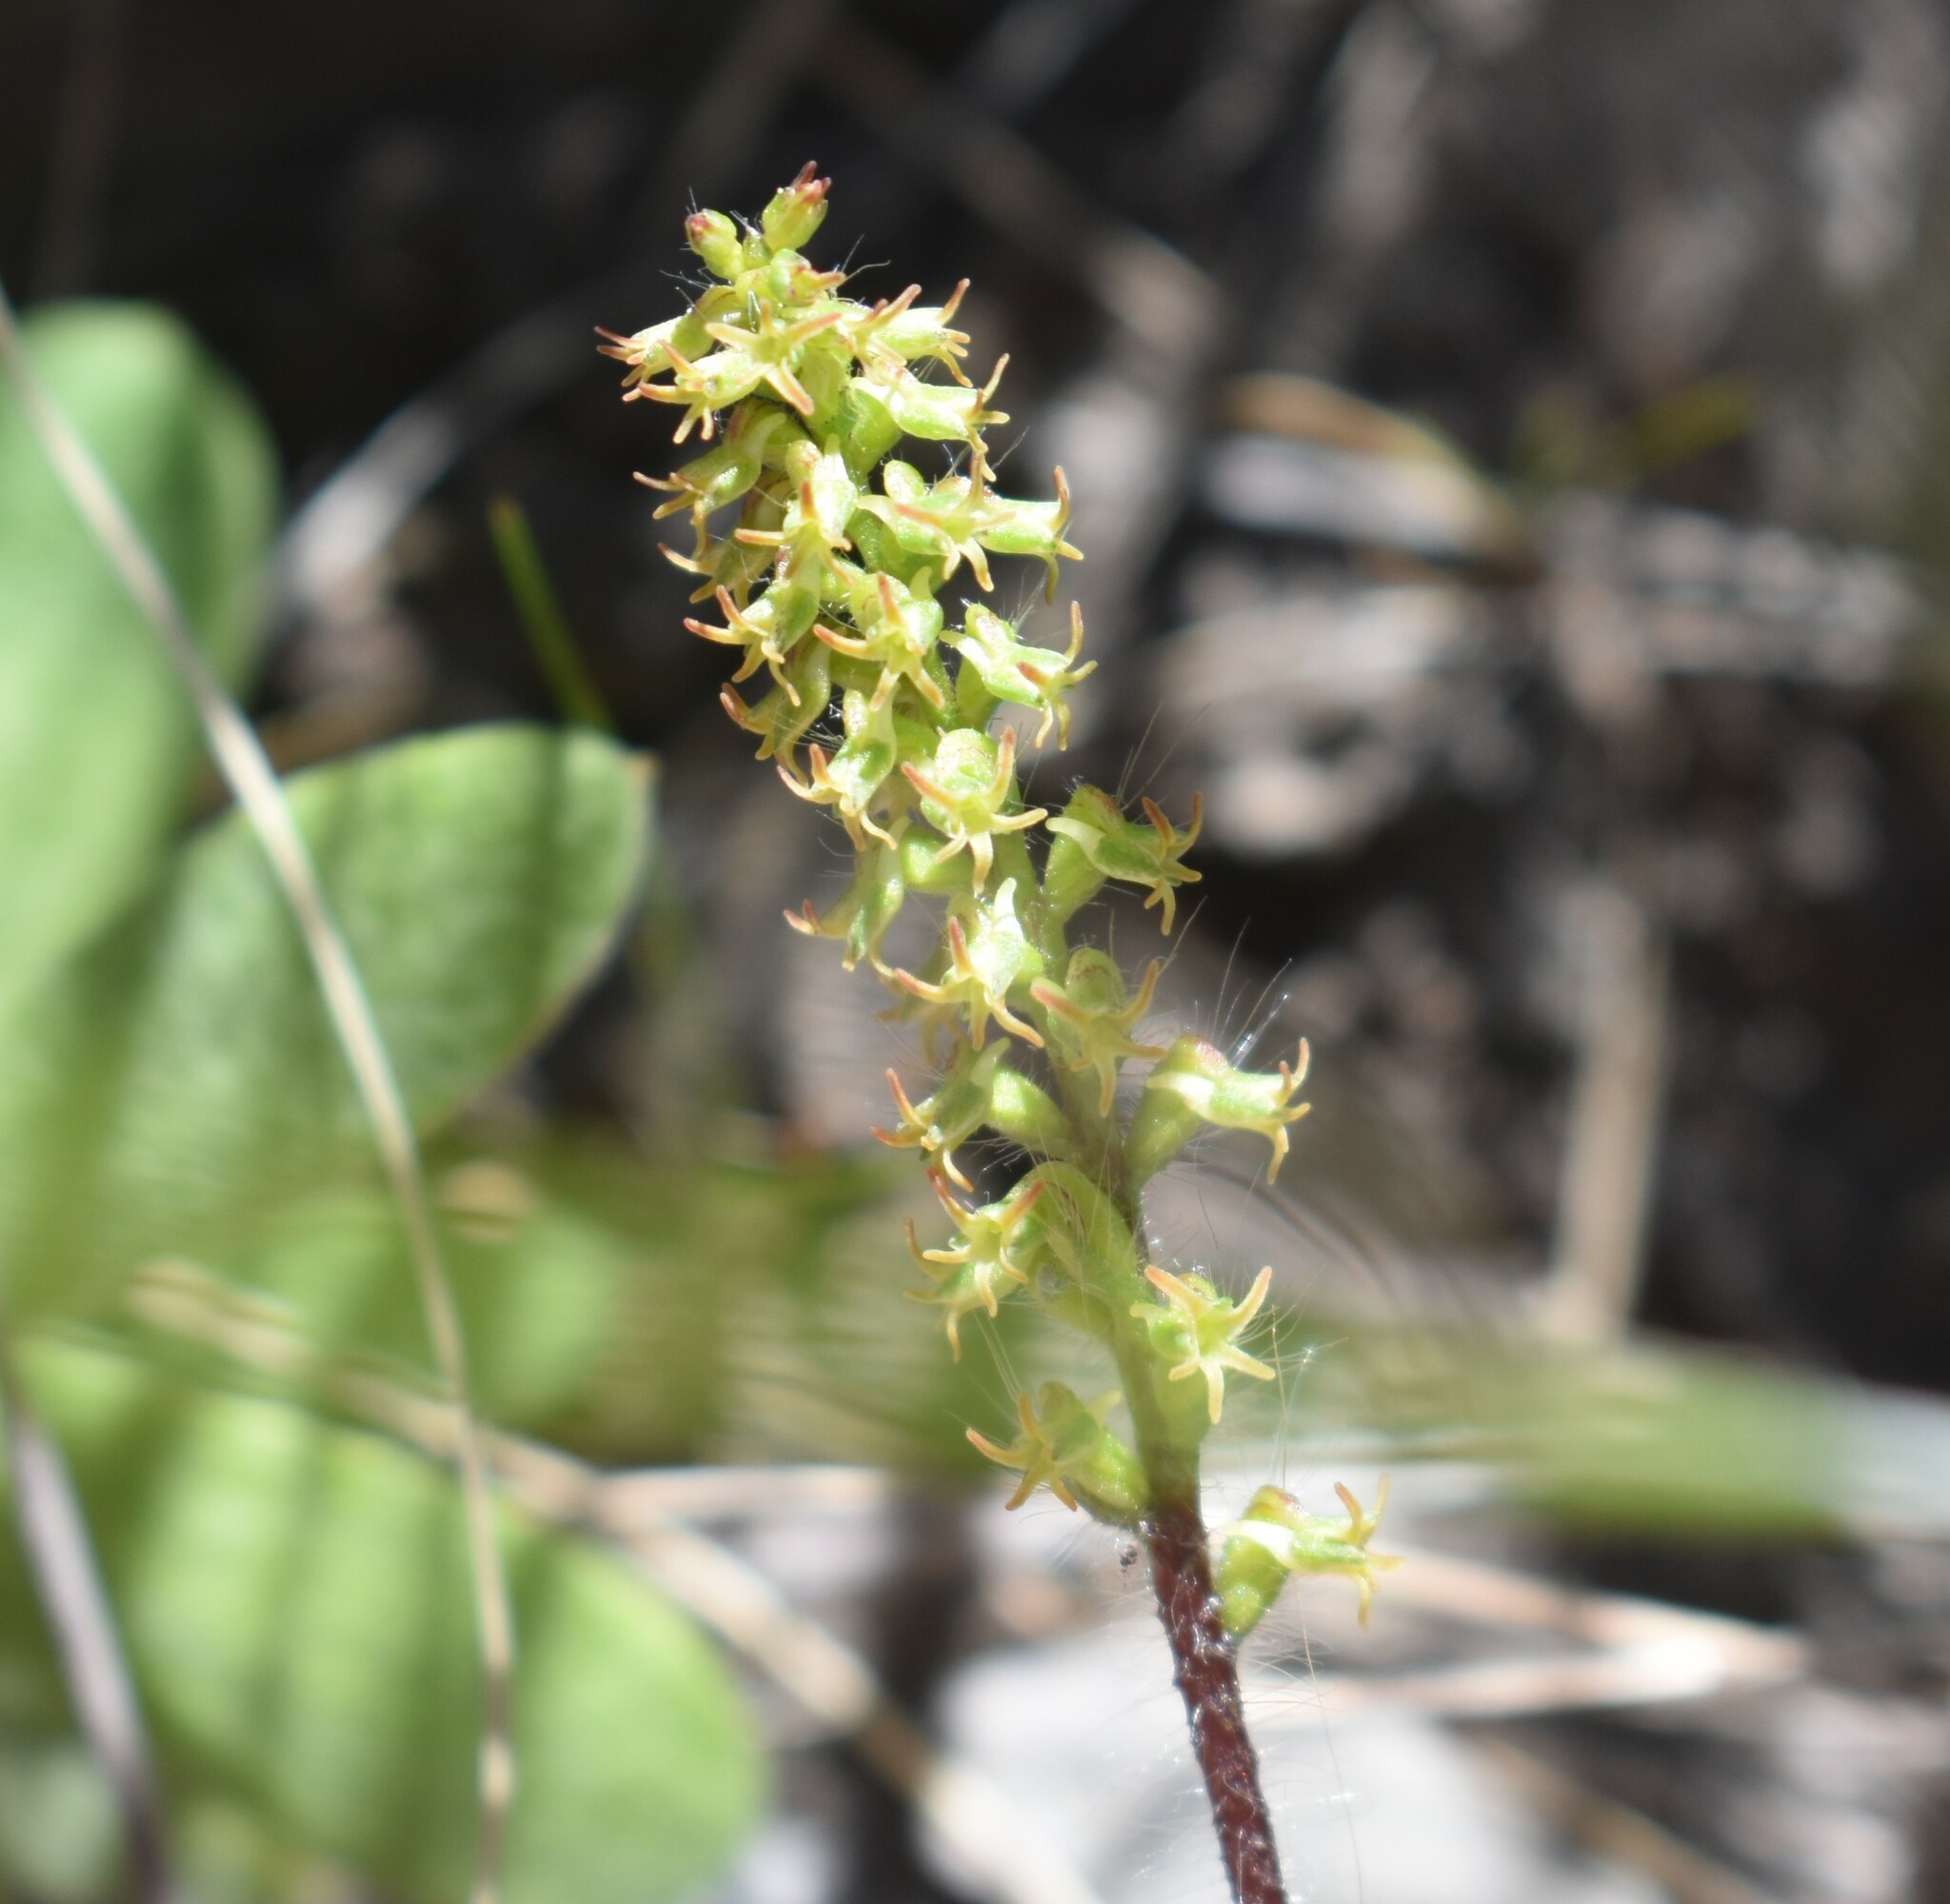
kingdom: Plantae
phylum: Tracheophyta
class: Liliopsida
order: Asparagales
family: Orchidaceae
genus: Holothrix
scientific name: Holothrix villosa
